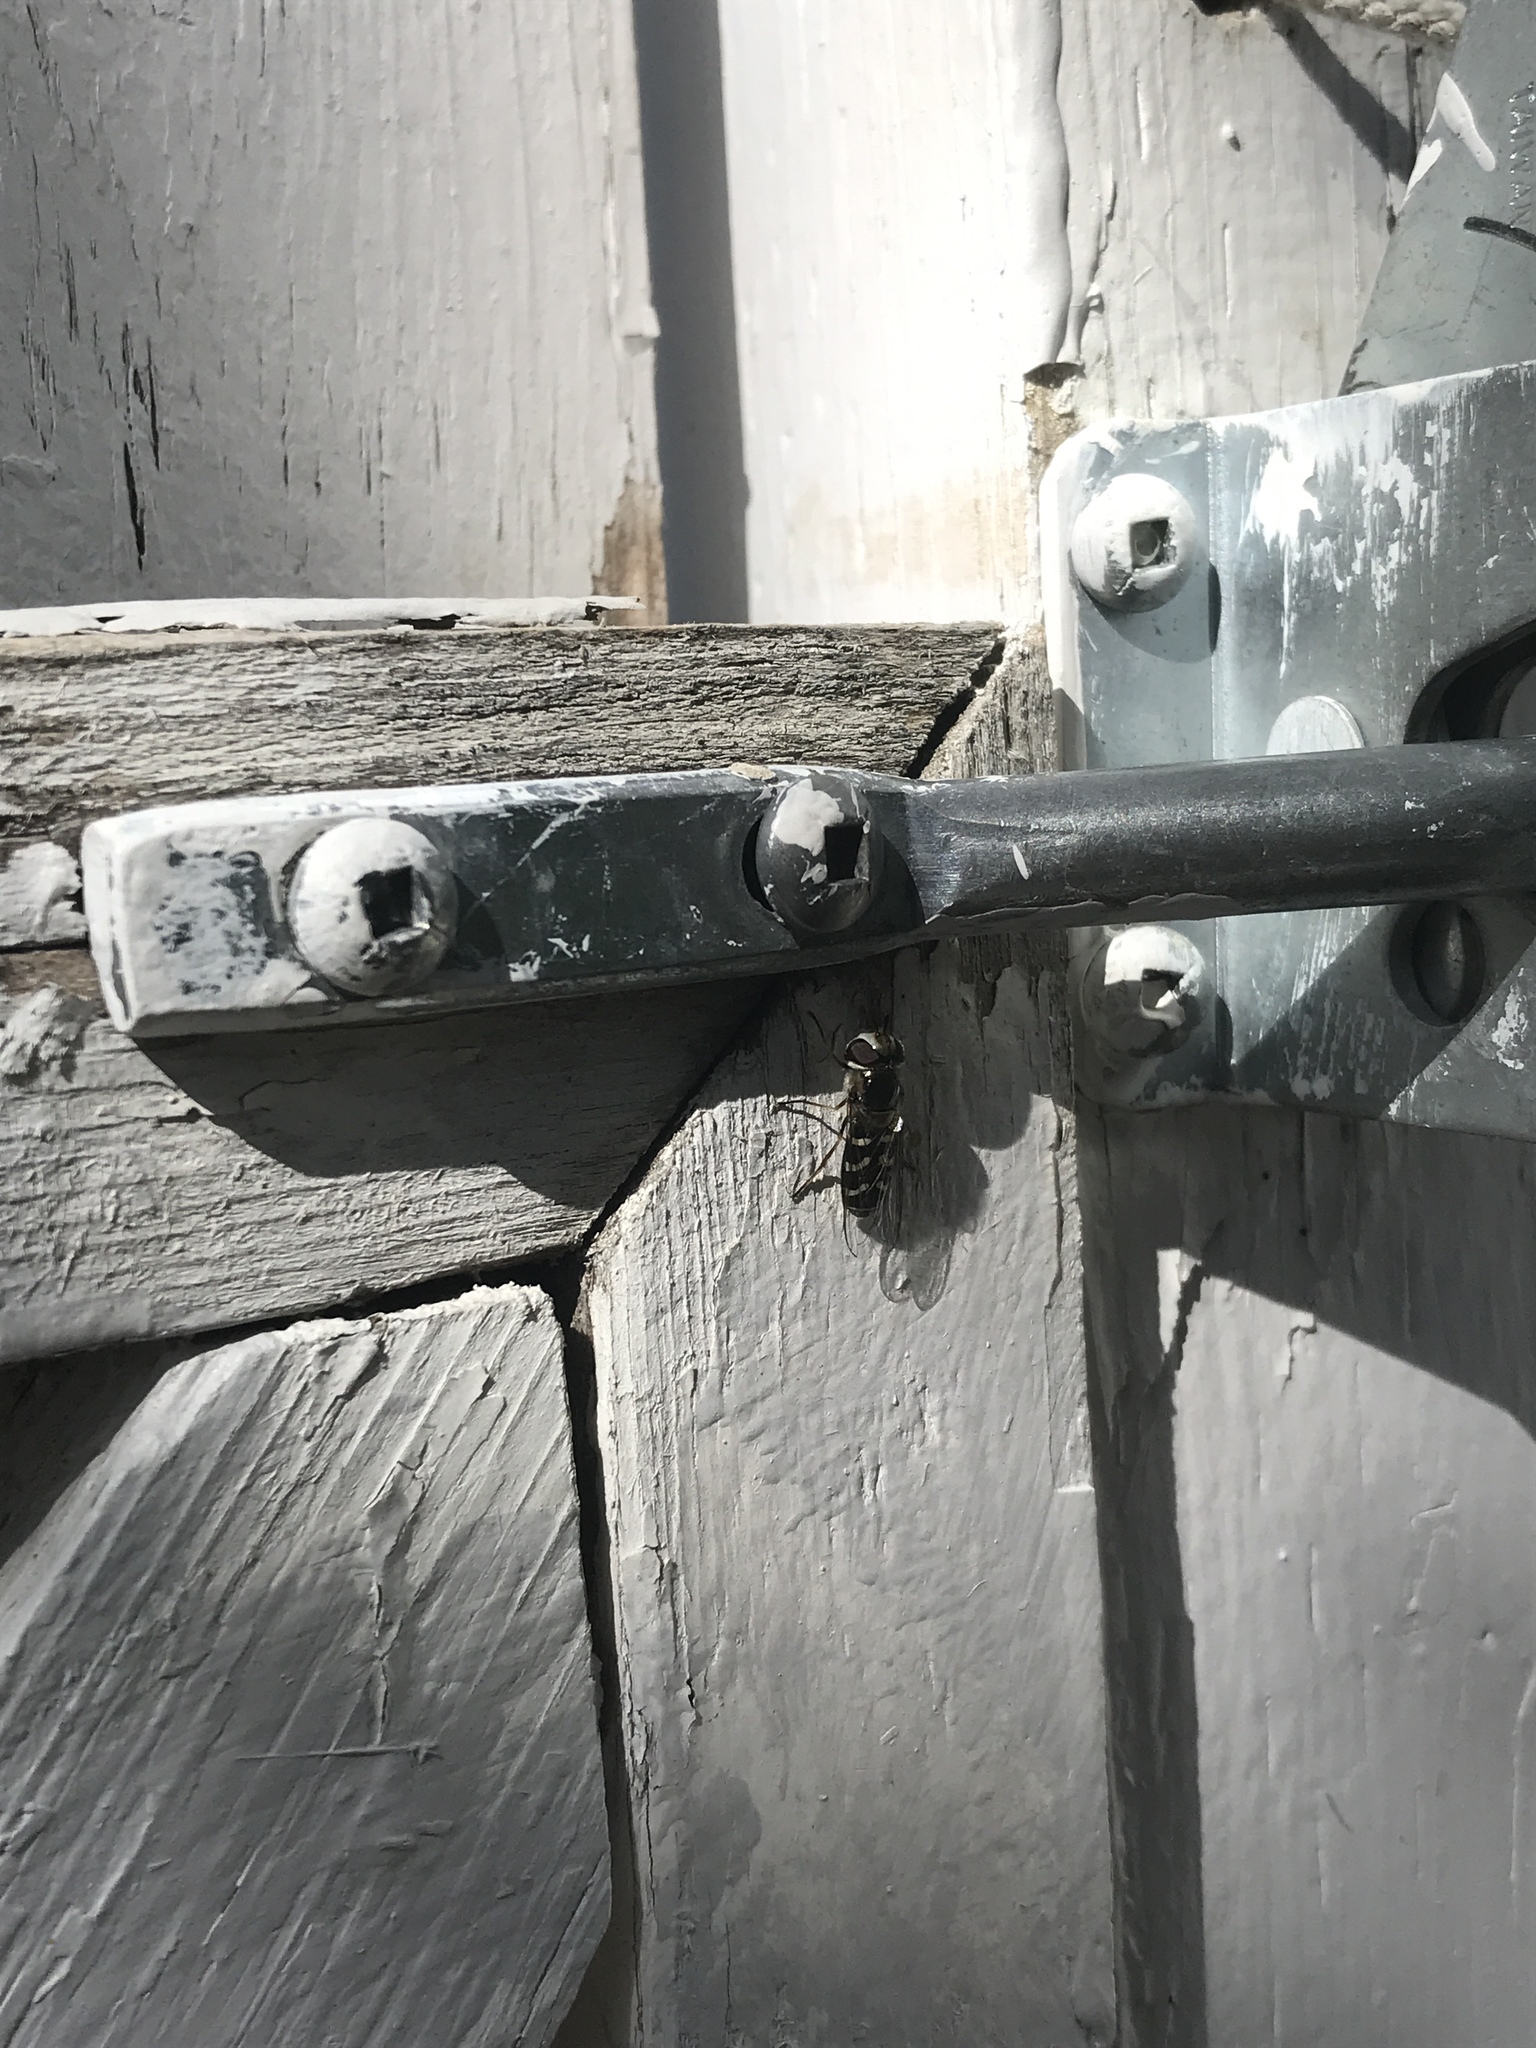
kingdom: Animalia
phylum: Arthropoda
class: Insecta
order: Diptera
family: Syrphidae
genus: Scaeva
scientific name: Scaeva affinis
